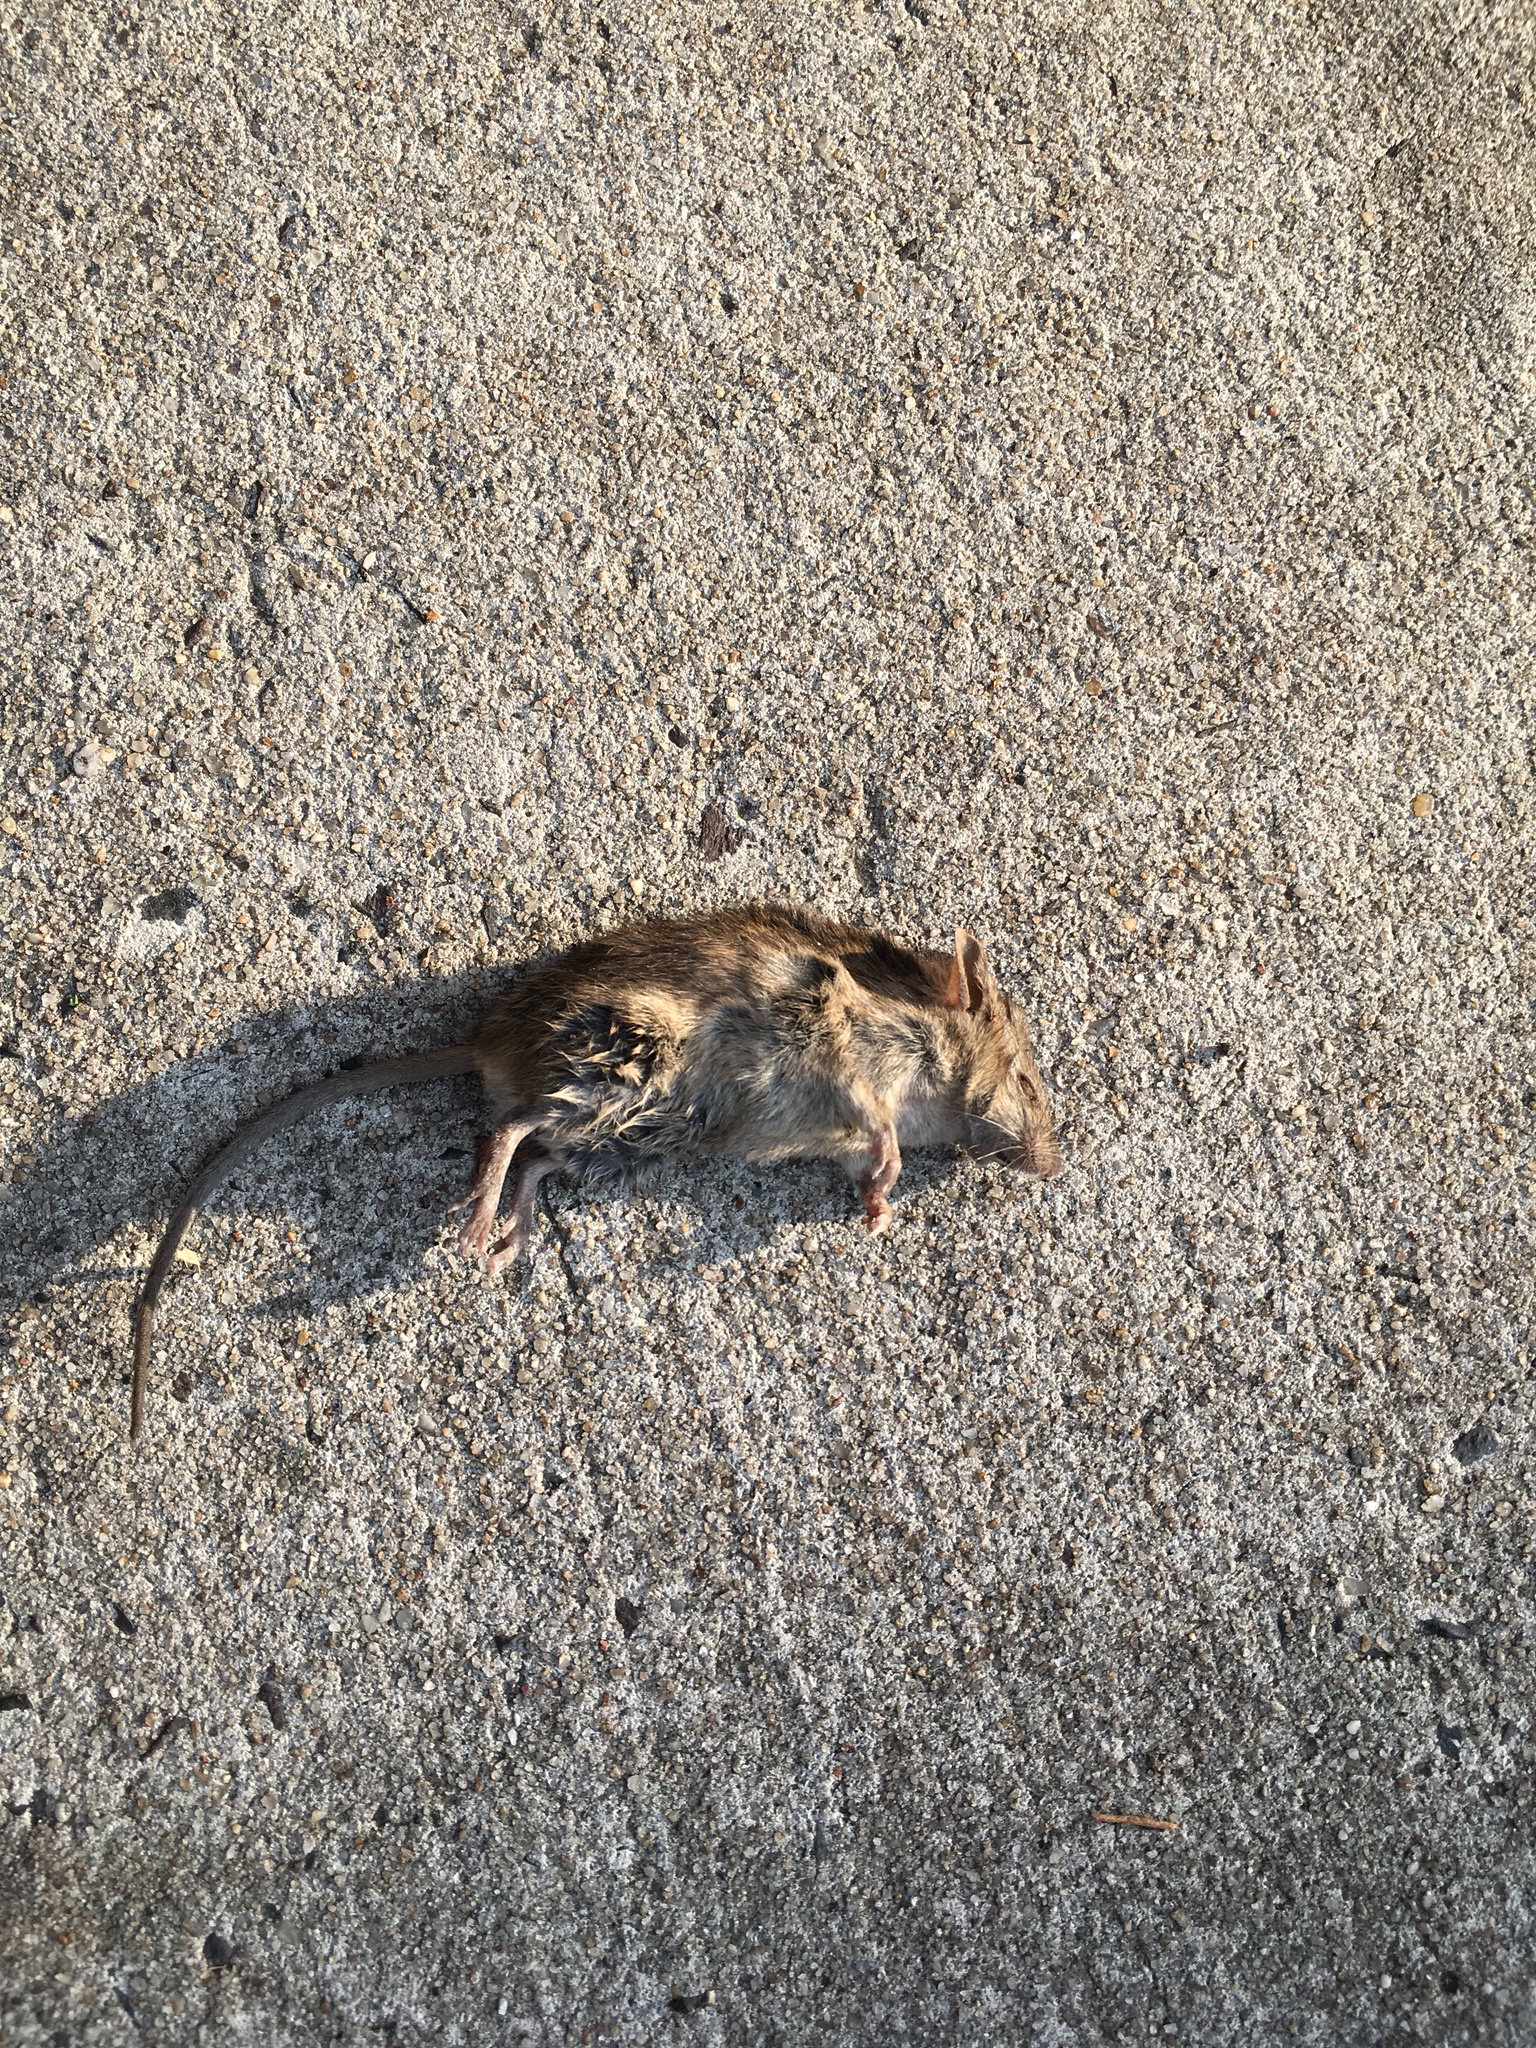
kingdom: Animalia
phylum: Chordata
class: Mammalia
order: Rodentia
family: Muridae
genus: Mus
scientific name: Mus musculus
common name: House mouse
